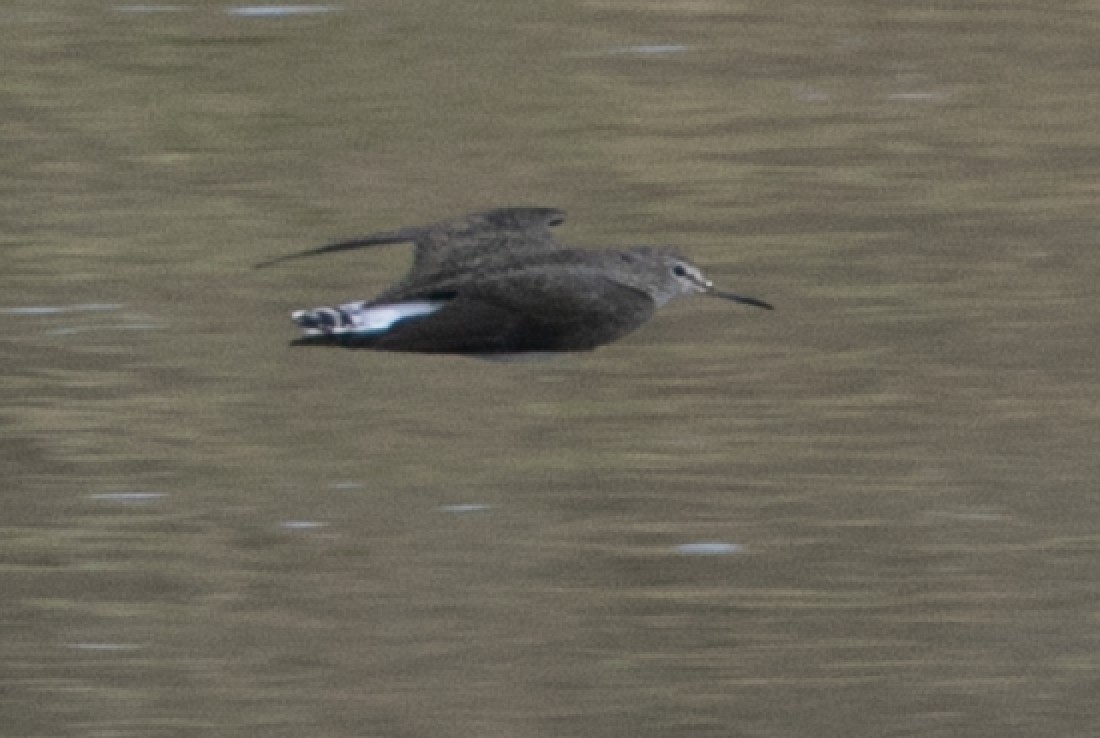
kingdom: Animalia
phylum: Chordata
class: Aves
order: Charadriiformes
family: Scolopacidae
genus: Tringa
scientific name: Tringa ochropus
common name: Green sandpiper
